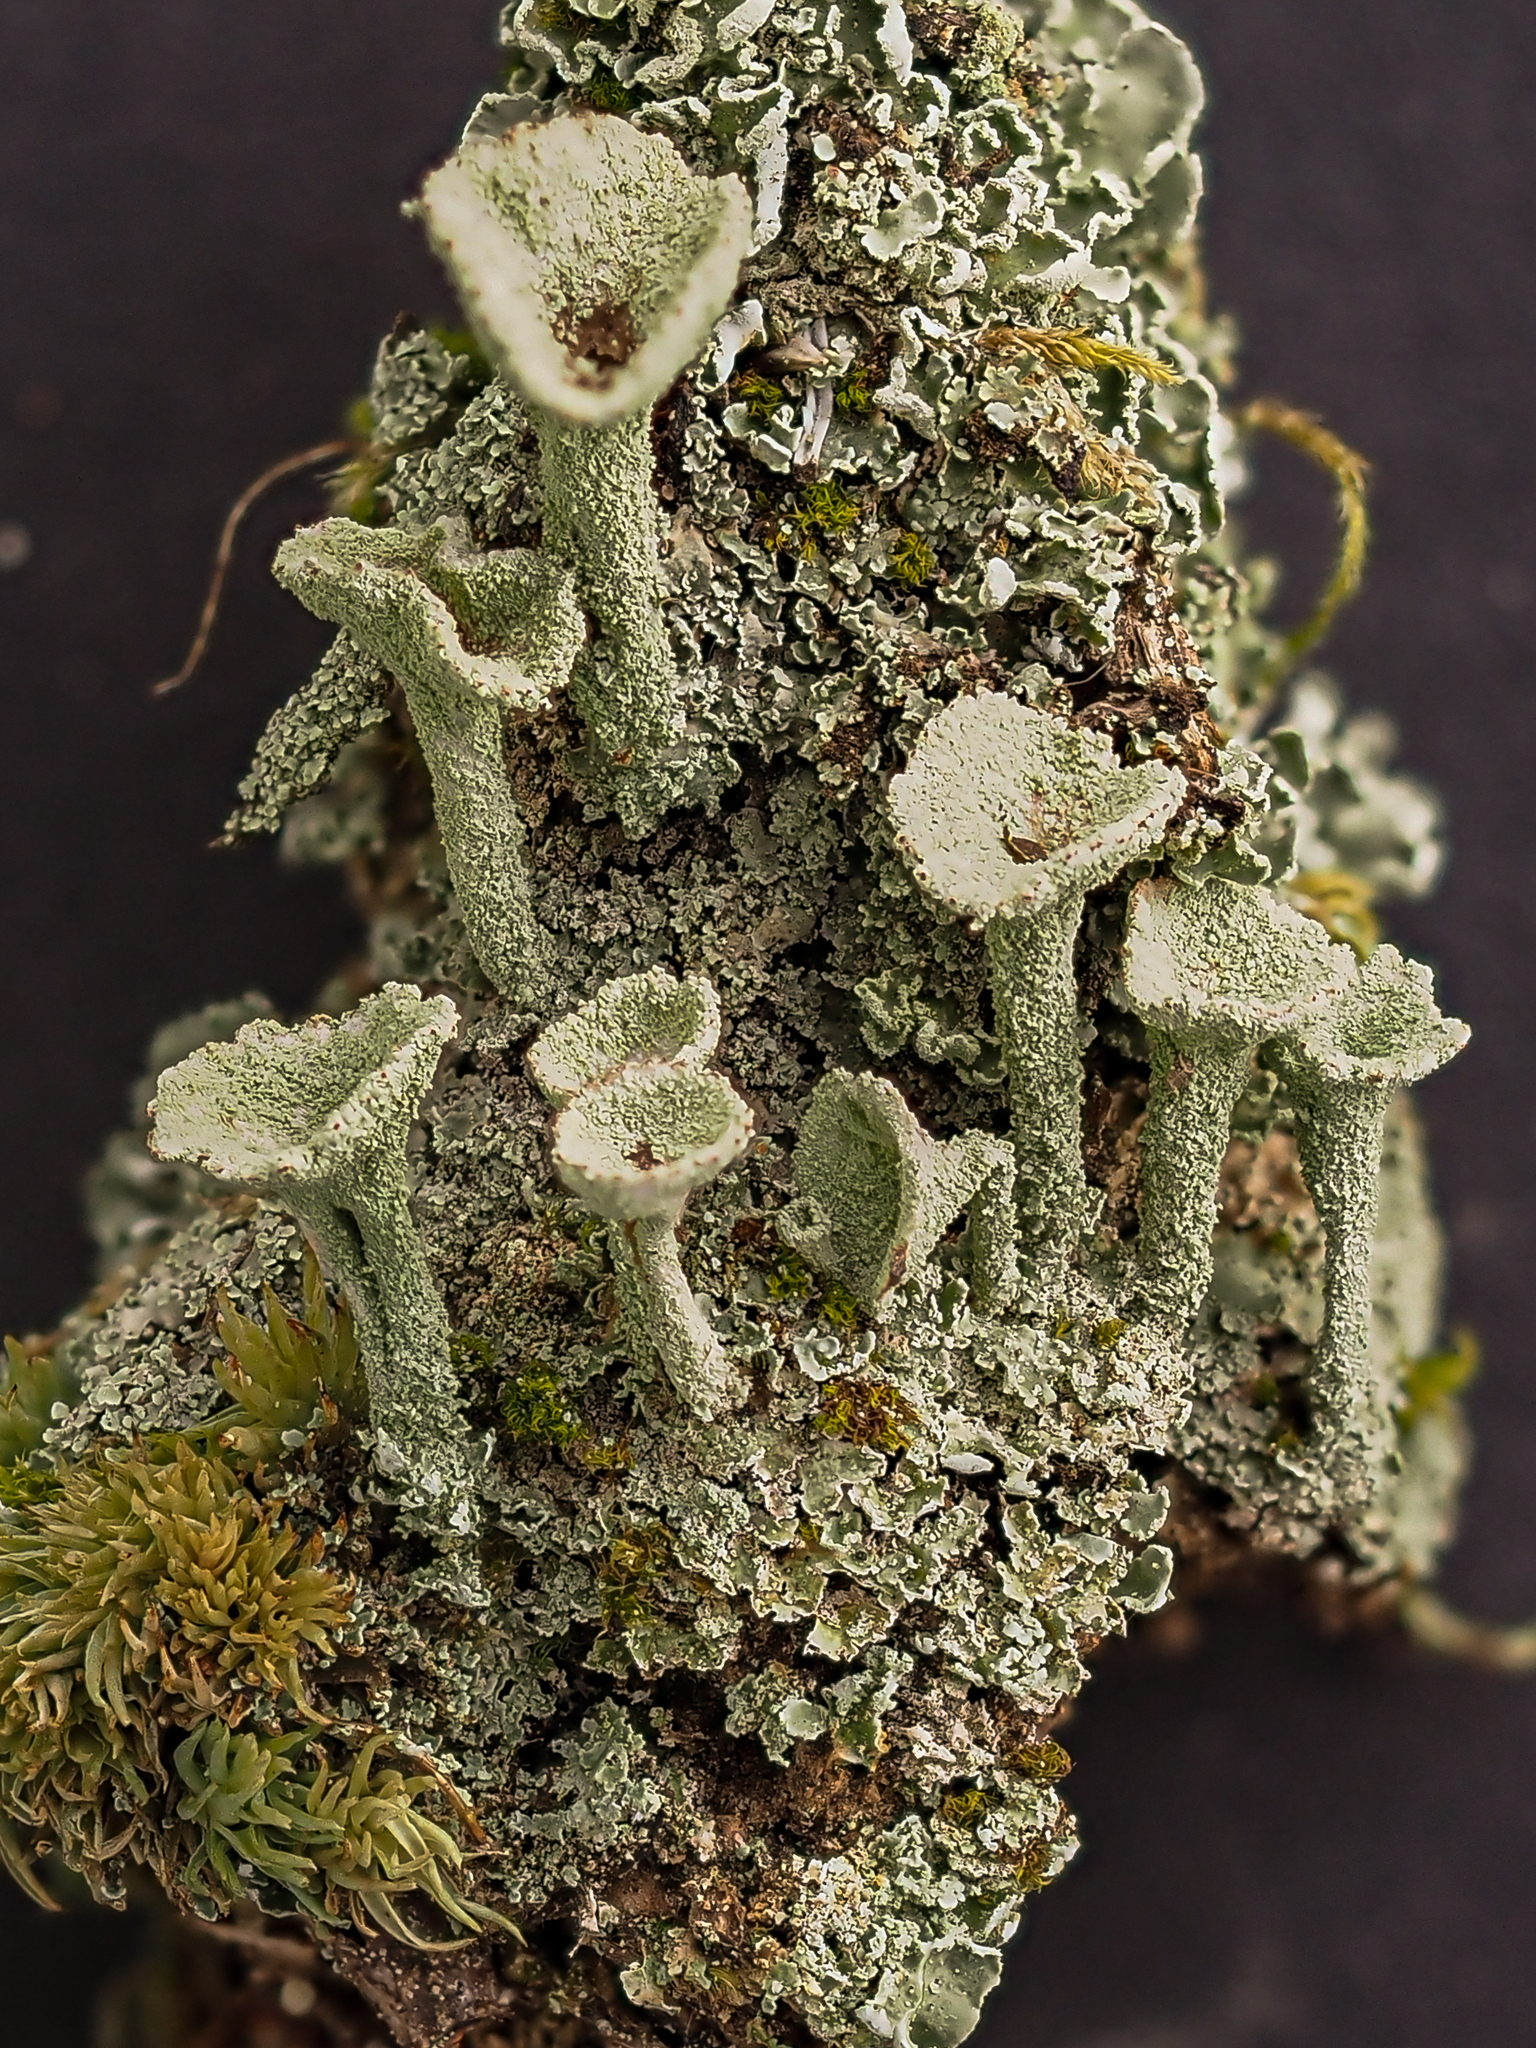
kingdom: Fungi
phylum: Ascomycota
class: Lecanoromycetes
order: Lecanorales
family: Cladoniaceae
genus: Cladonia
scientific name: Cladonia fimbriata
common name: Powdered trumpet lichen
